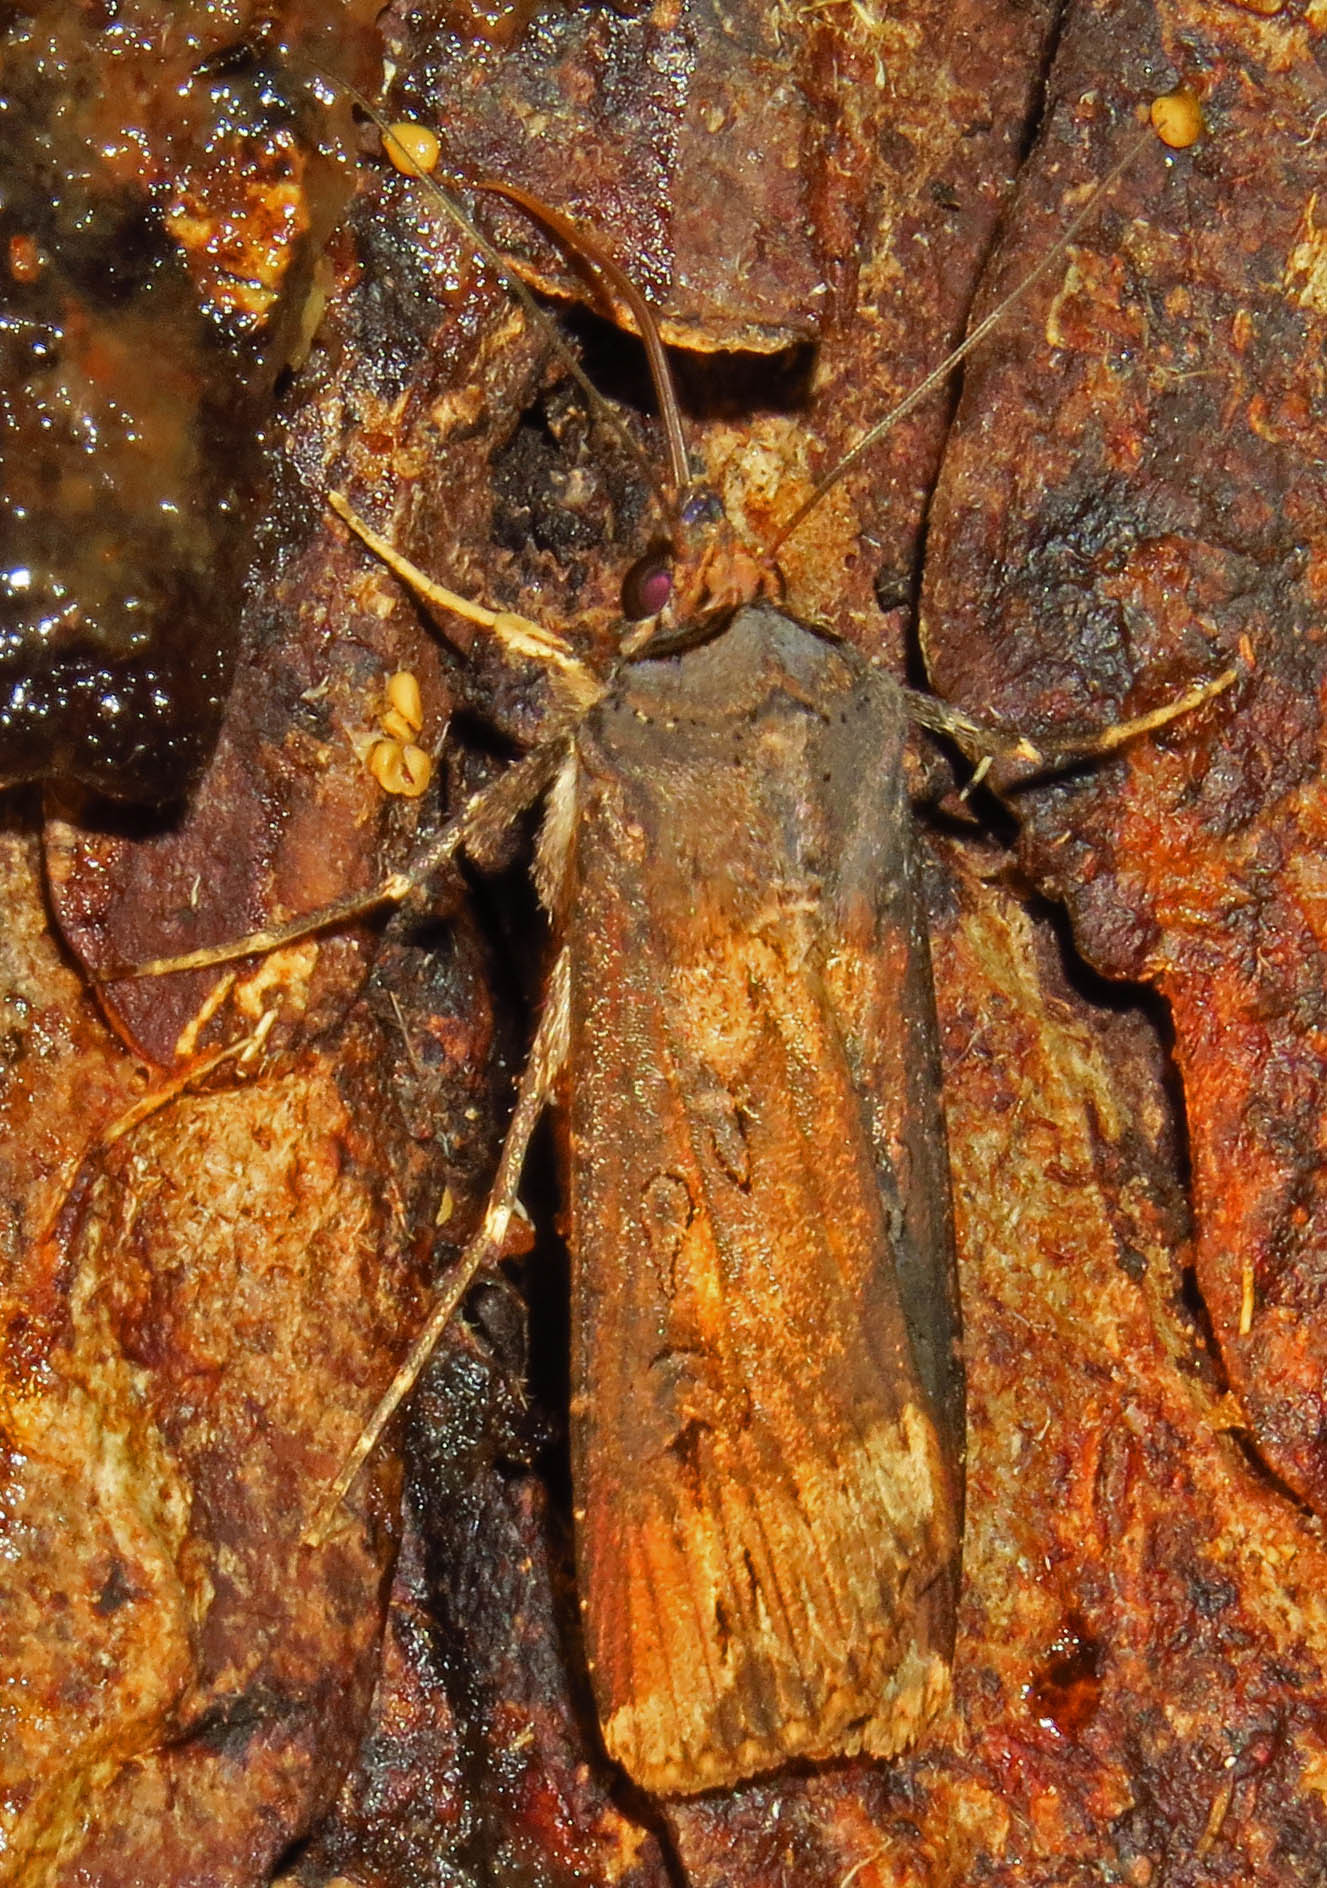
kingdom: Animalia
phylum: Arthropoda
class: Insecta
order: Lepidoptera
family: Noctuidae
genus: Agrotis
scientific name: Agrotis ipsilon
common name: Dark sword-grass
